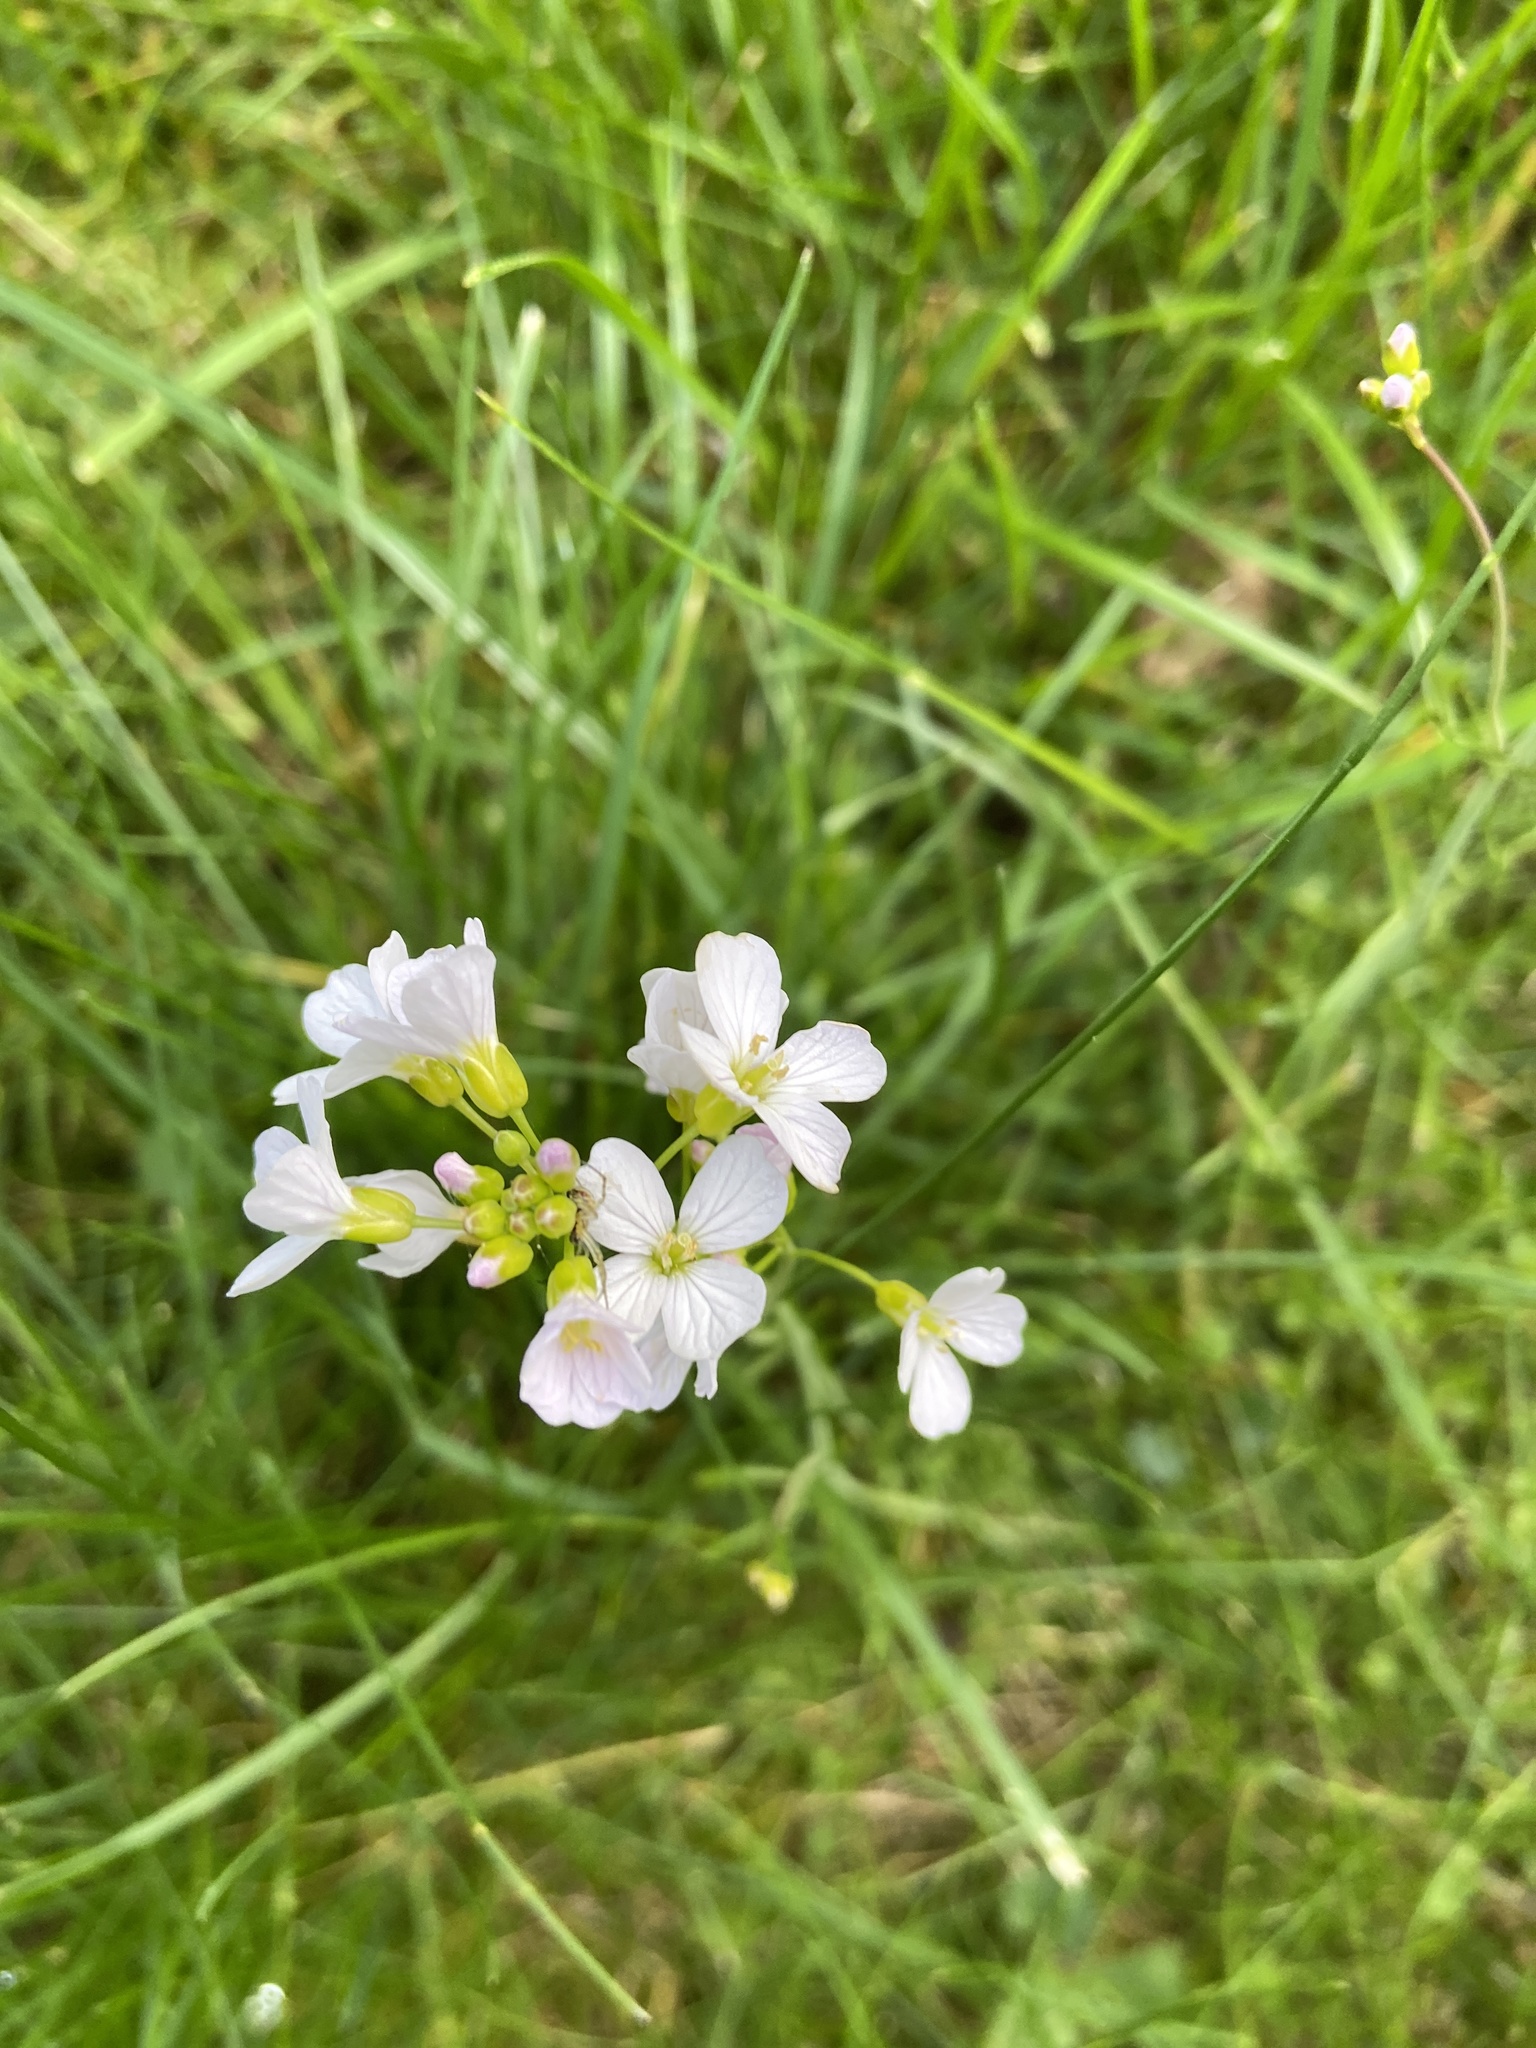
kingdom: Plantae
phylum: Tracheophyta
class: Magnoliopsida
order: Brassicales
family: Brassicaceae
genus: Cardamine
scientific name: Cardamine pratensis
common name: Cuckoo flower
